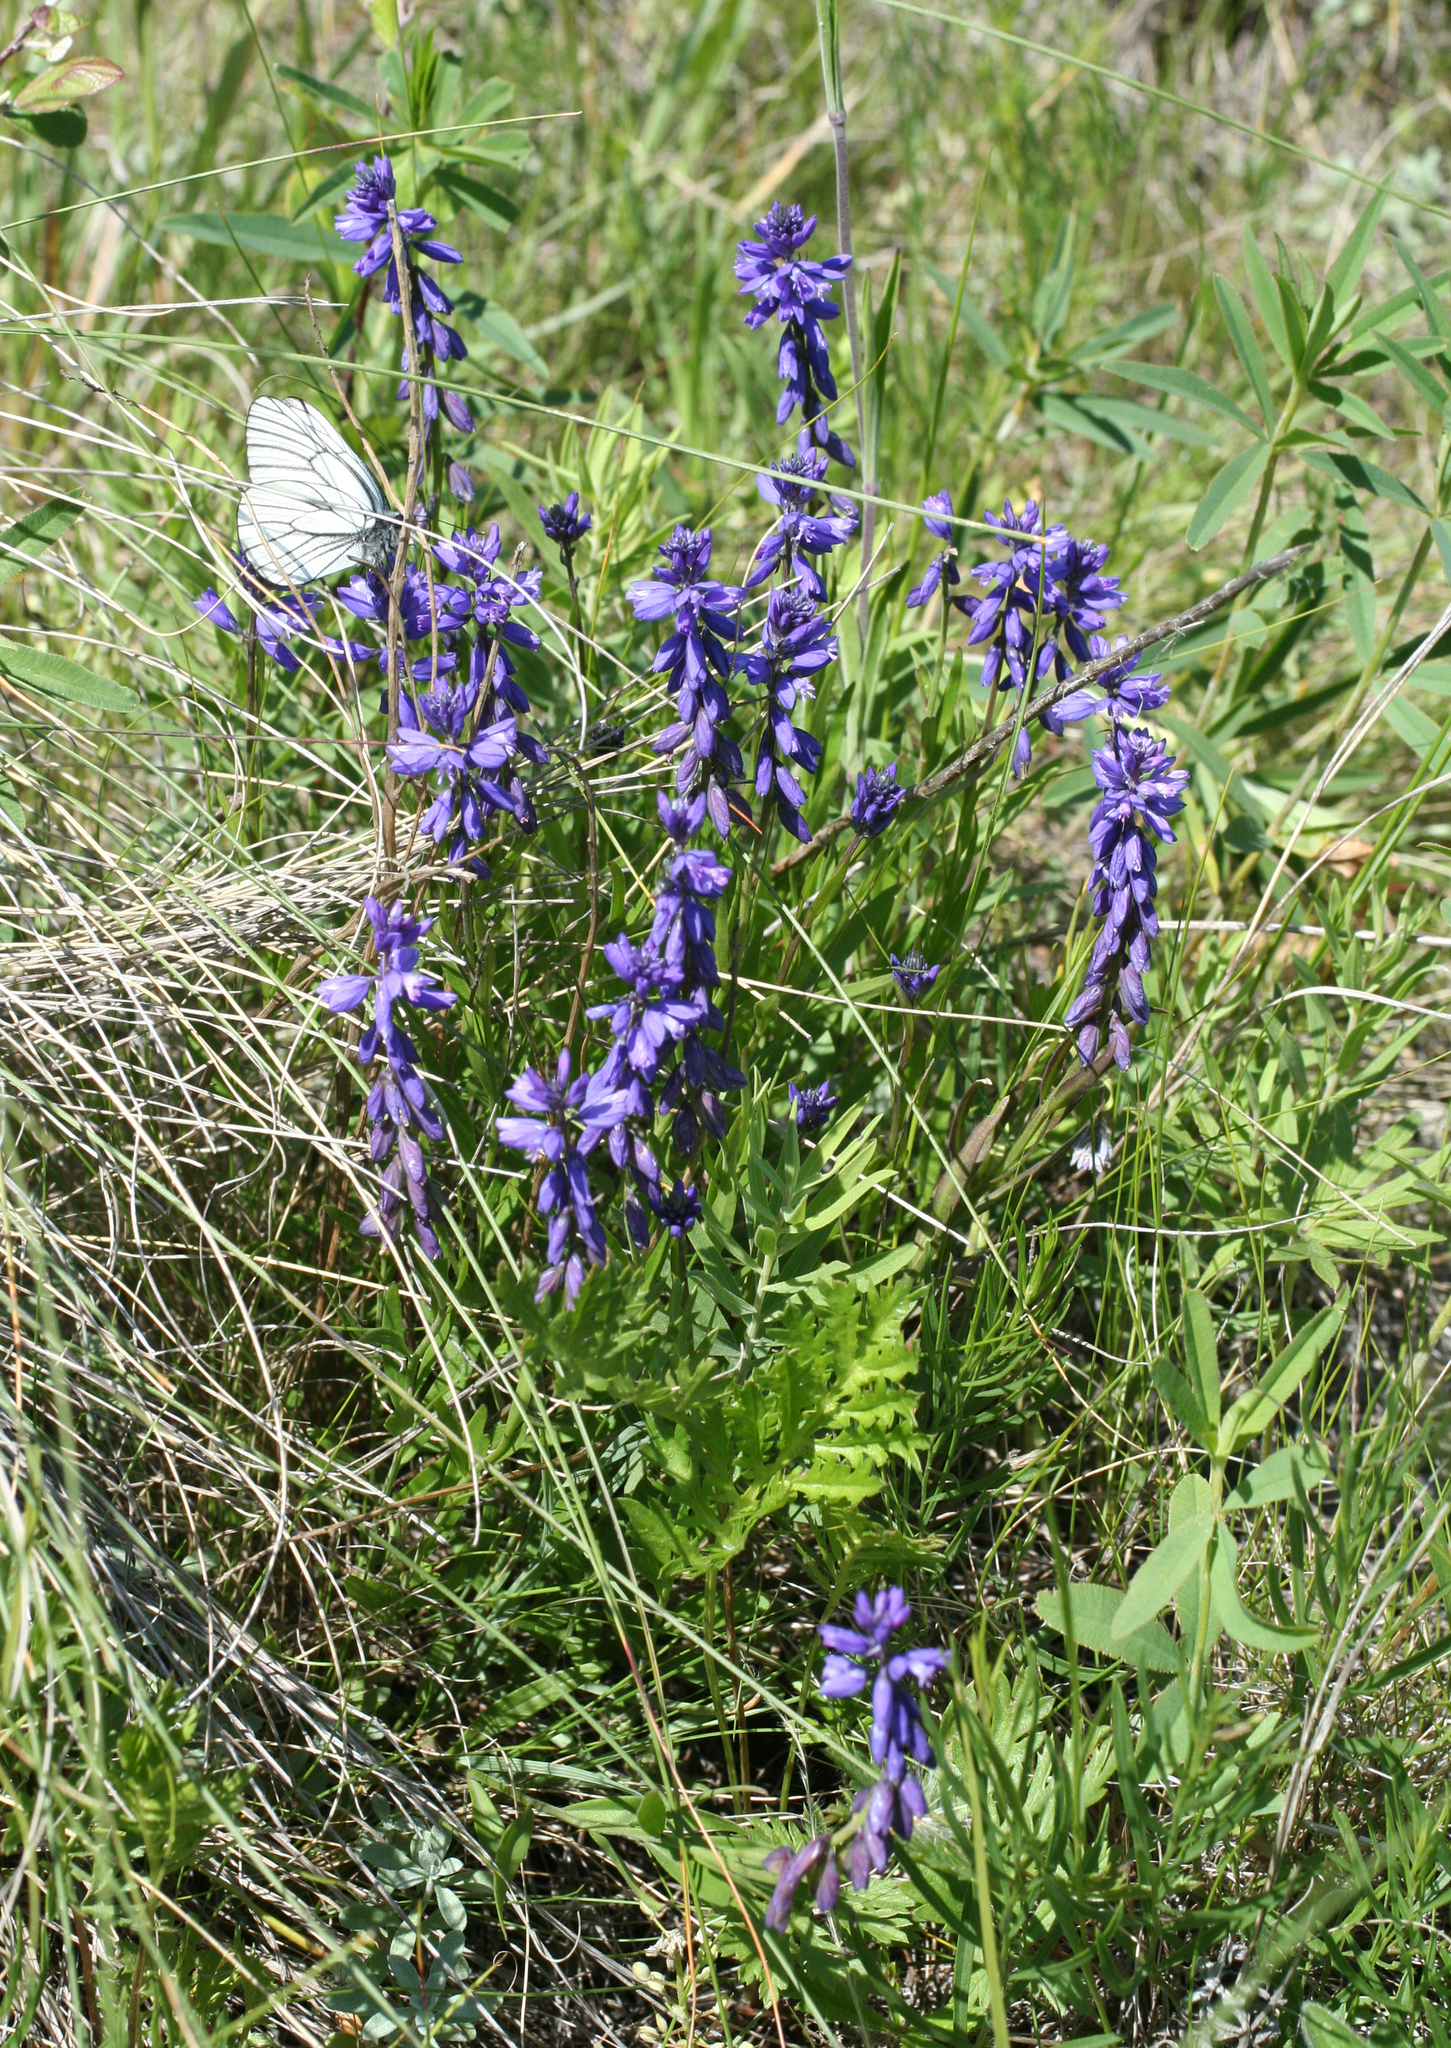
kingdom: Plantae
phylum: Tracheophyta
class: Magnoliopsida
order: Fabales
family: Polygalaceae
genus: Polygala
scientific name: Polygala comosa
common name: Tufted milkwort
